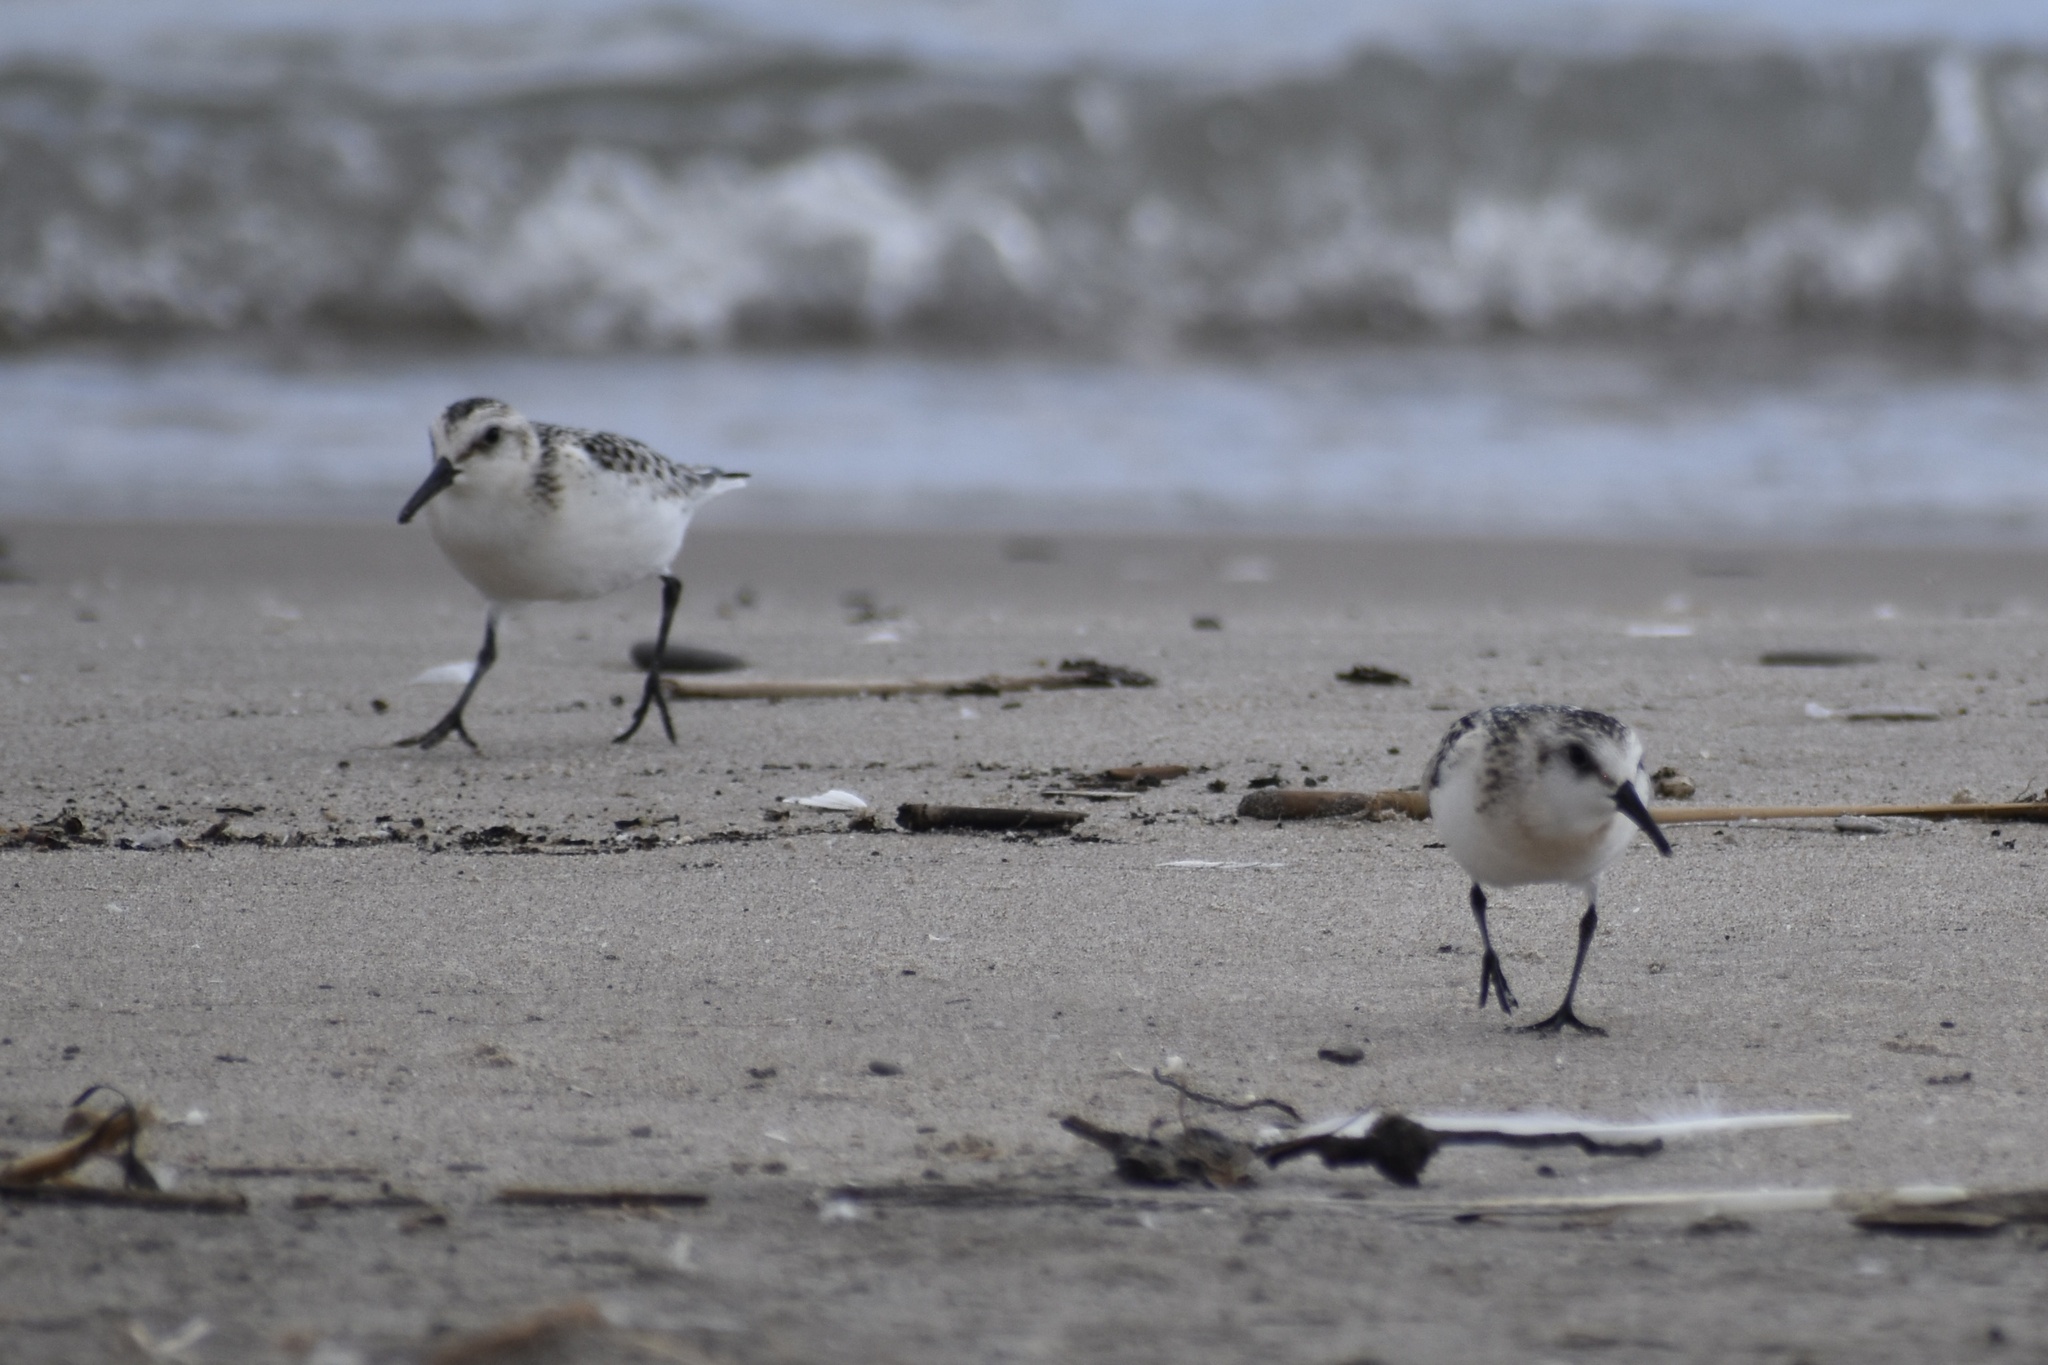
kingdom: Animalia
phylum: Chordata
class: Aves
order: Charadriiformes
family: Scolopacidae
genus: Calidris
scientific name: Calidris alba
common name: Sanderling
